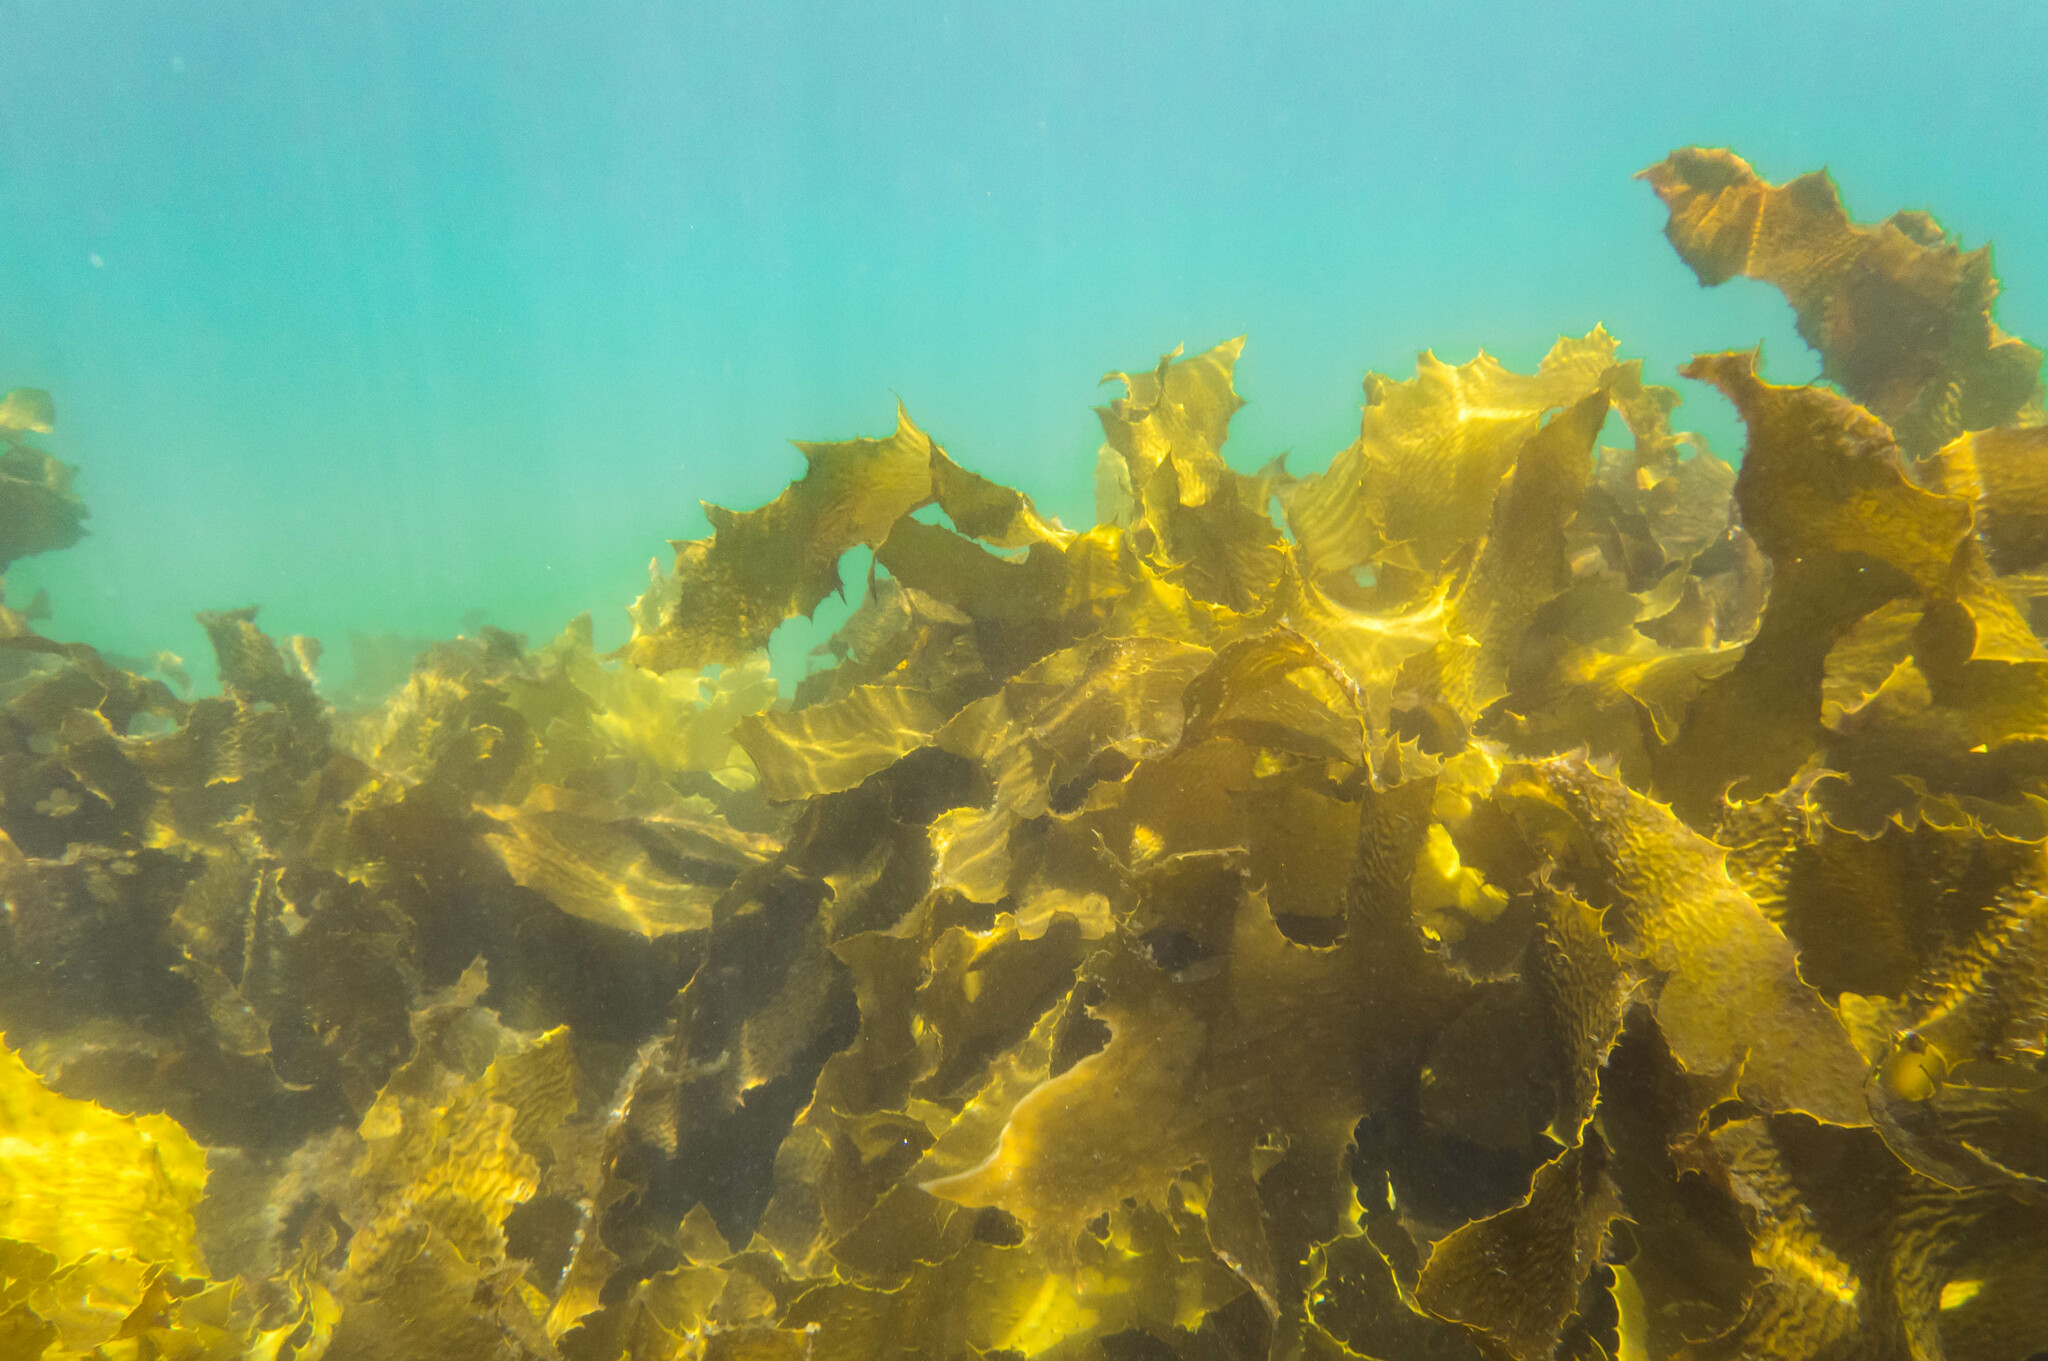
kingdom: Chromista
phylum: Ochrophyta
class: Phaeophyceae
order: Laminariales
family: Lessoniaceae
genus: Ecklonia
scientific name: Ecklonia radiata
